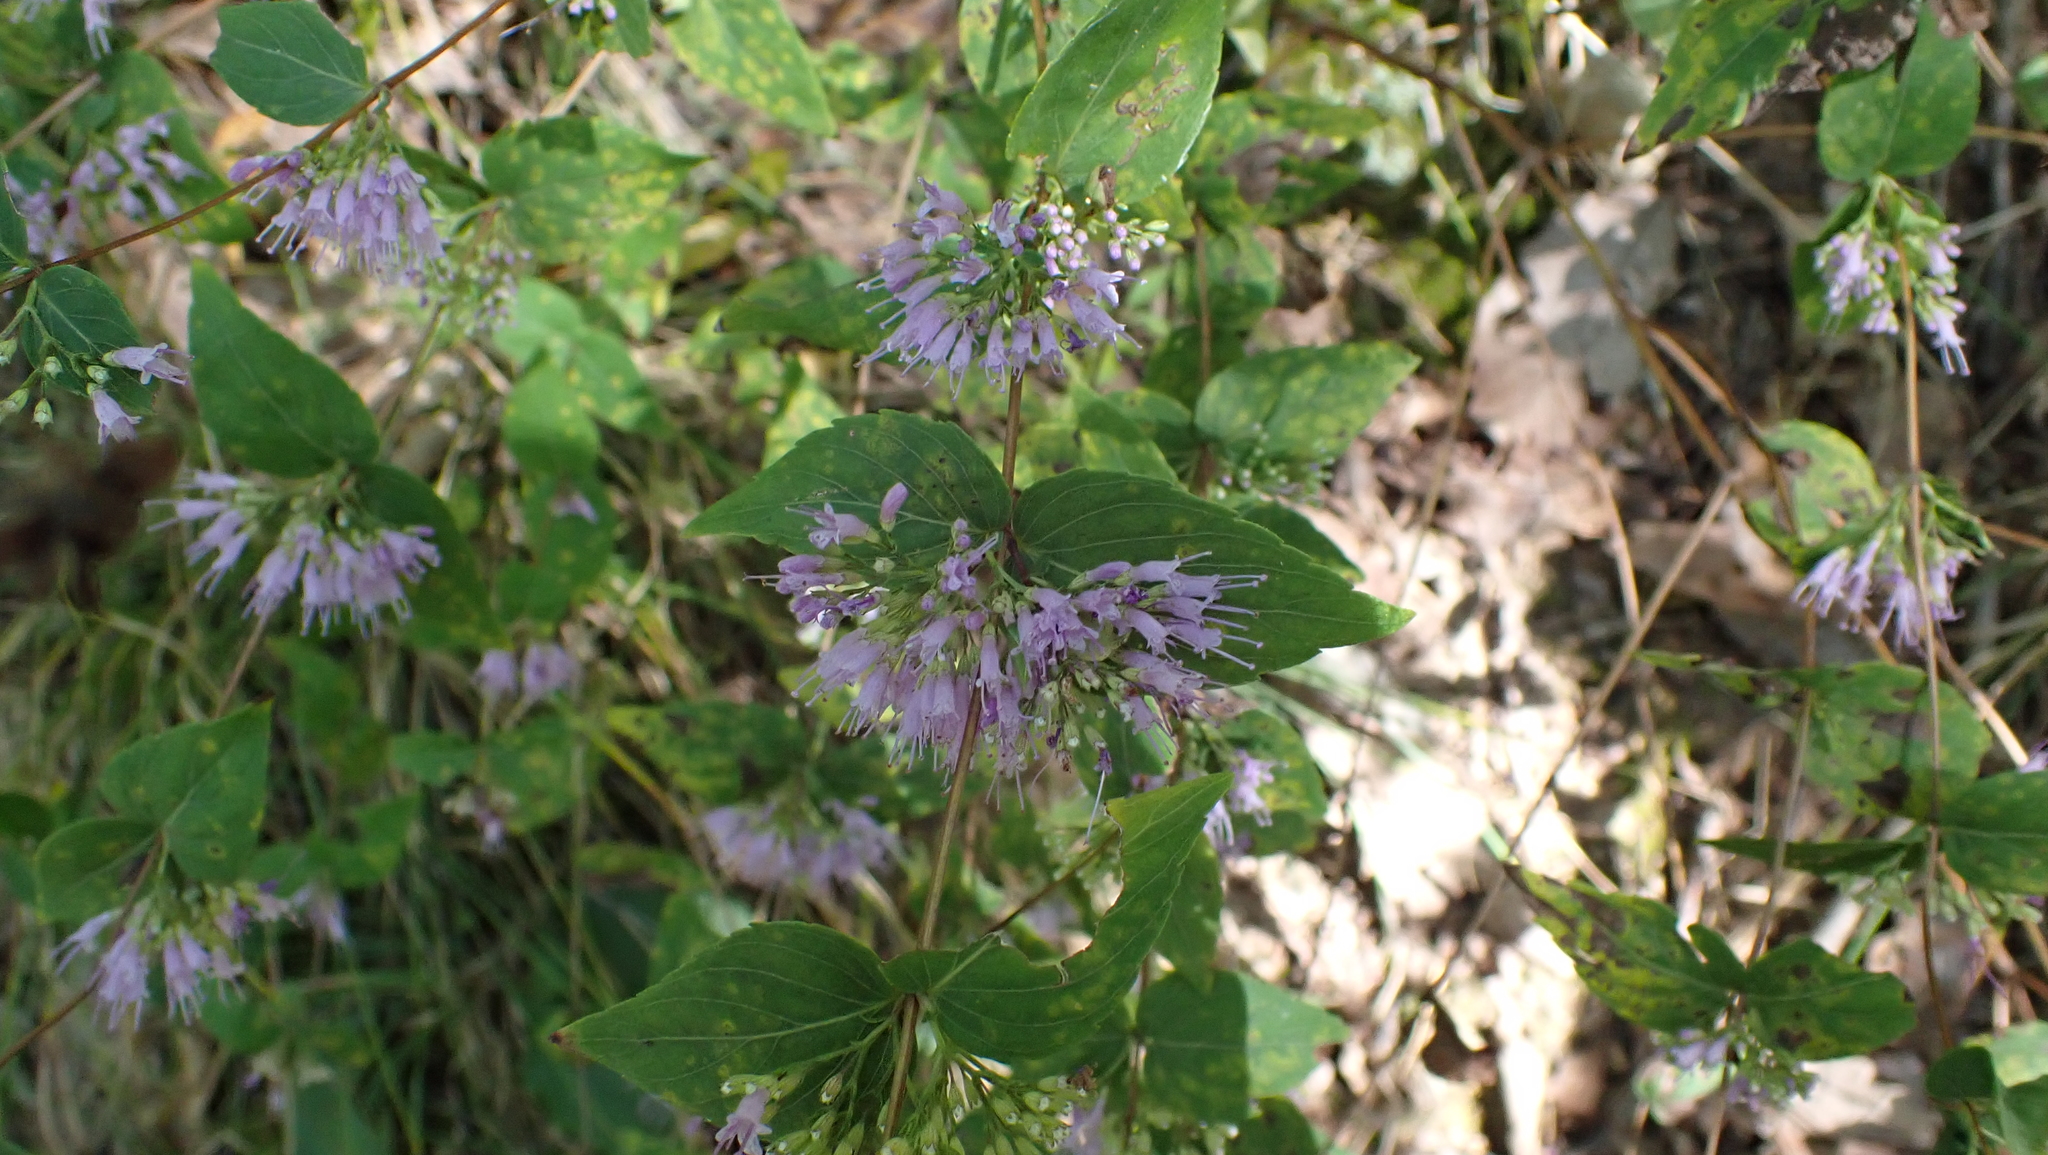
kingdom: Plantae
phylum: Tracheophyta
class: Magnoliopsida
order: Lamiales
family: Lamiaceae
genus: Cunila
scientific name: Cunila origanoides
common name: American dittany
